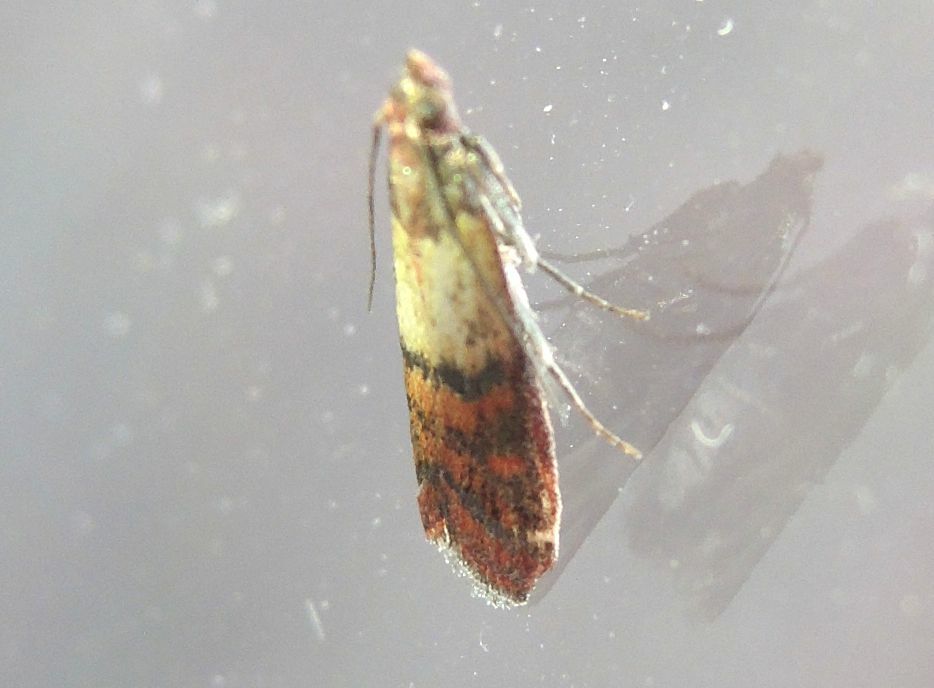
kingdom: Animalia
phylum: Arthropoda
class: Insecta
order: Lepidoptera
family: Pyralidae
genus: Plodia
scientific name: Plodia interpunctella
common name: Indian meal moth
